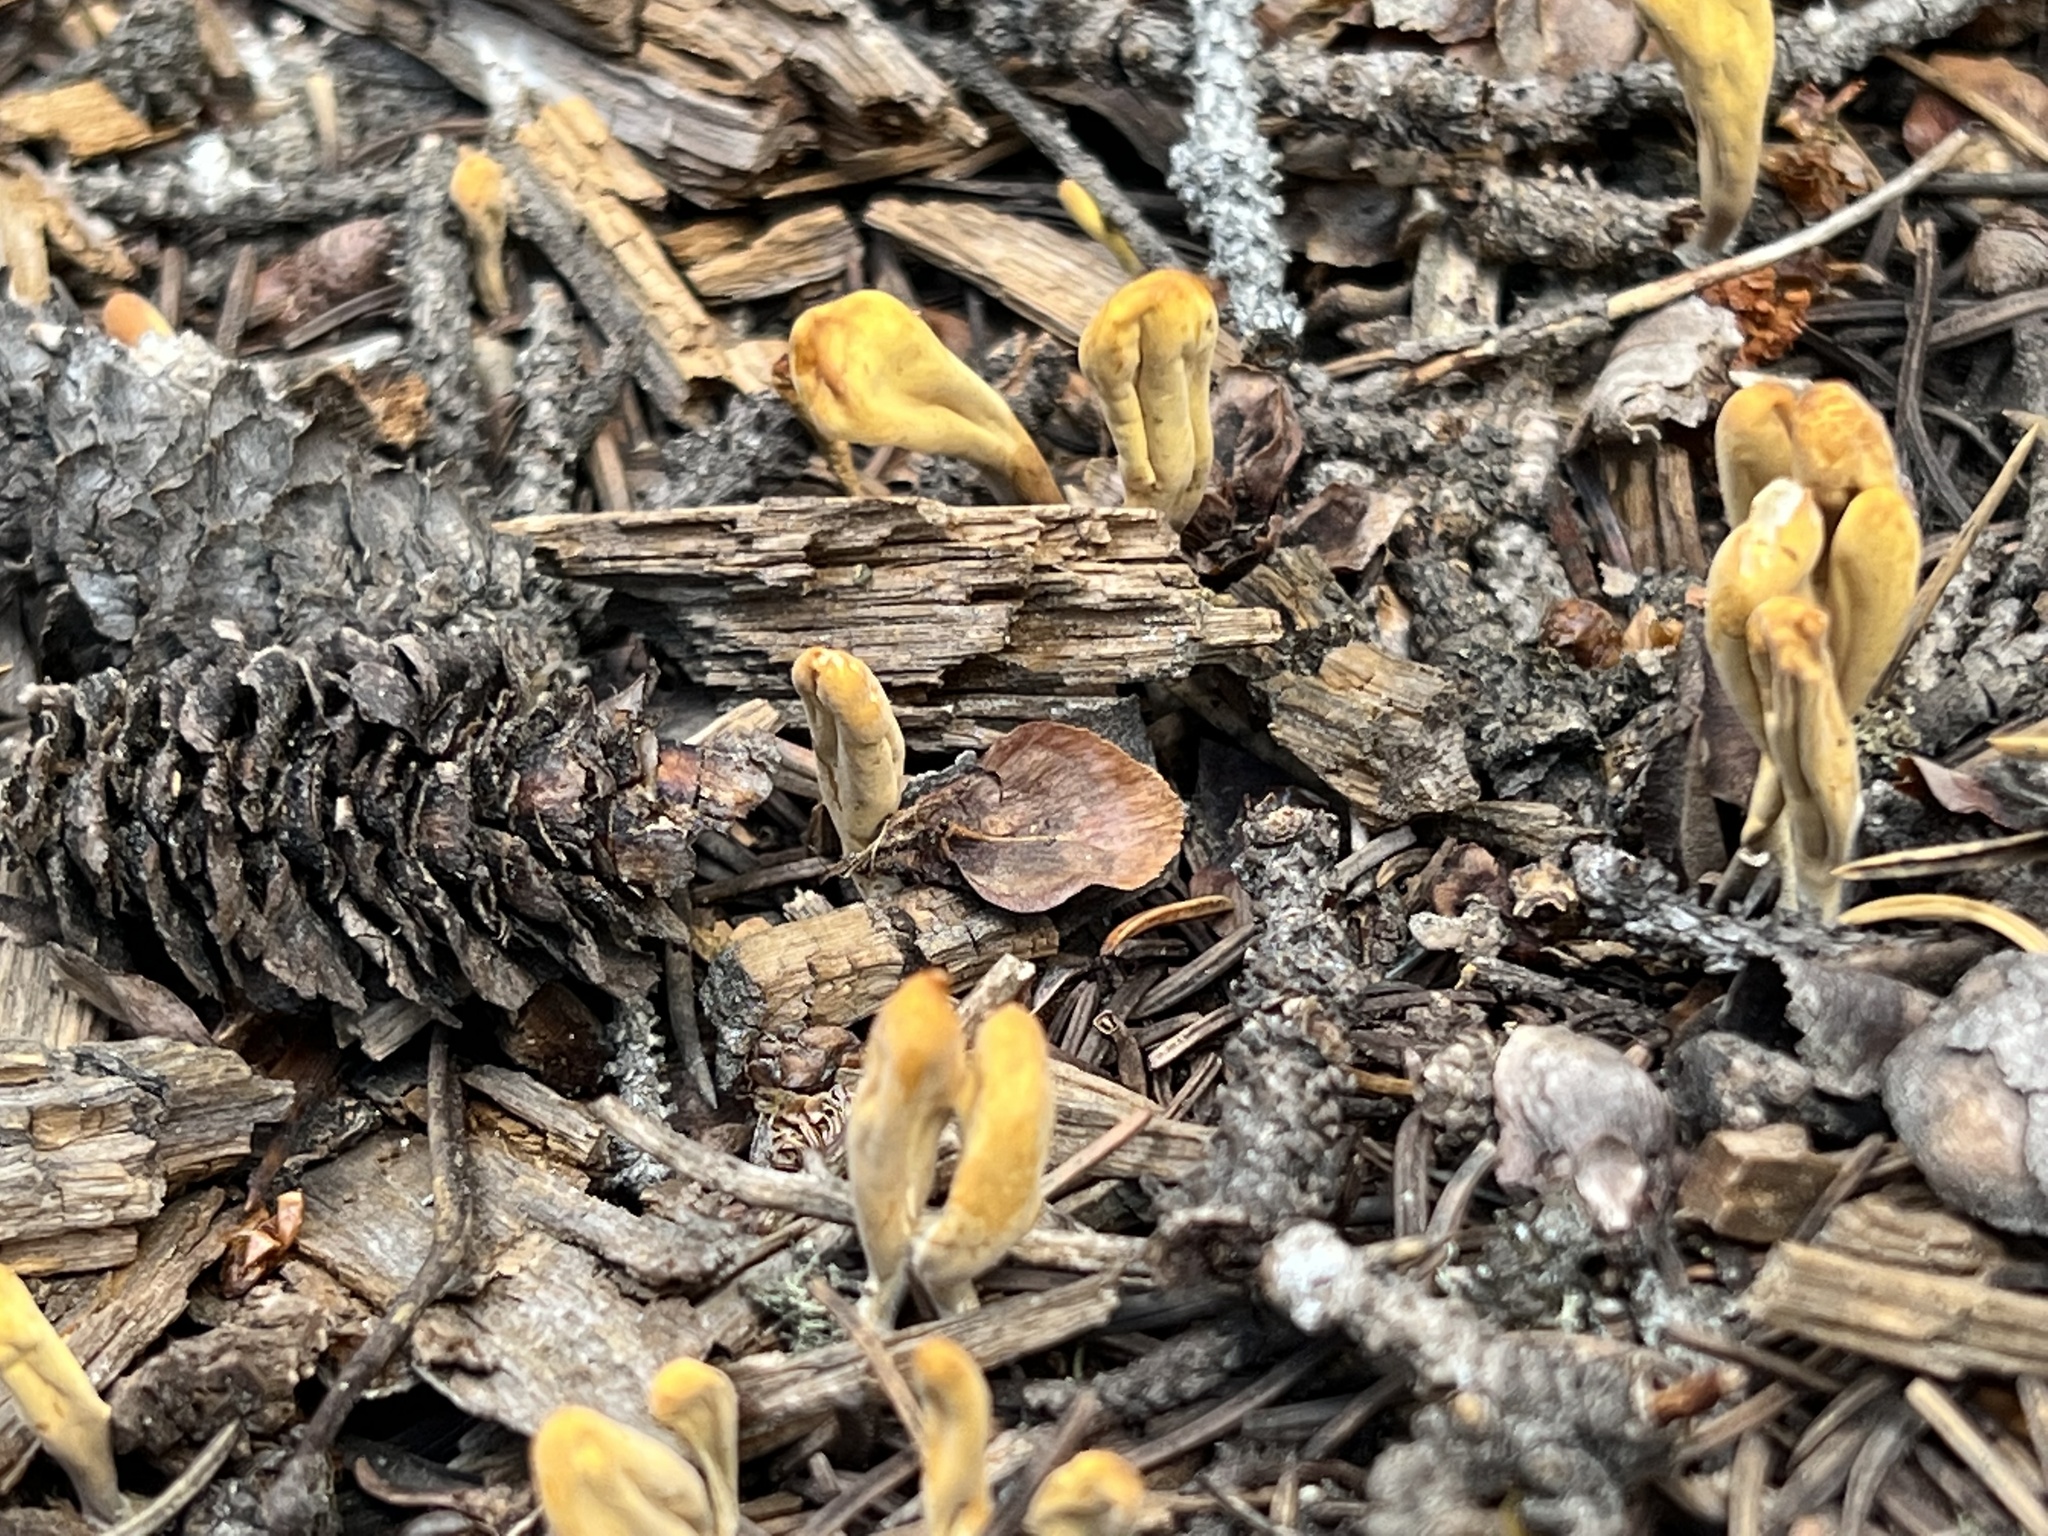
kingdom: Fungi
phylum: Basidiomycota
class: Agaricomycetes
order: Gomphales
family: Clavariadelphaceae
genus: Clavariadelphus
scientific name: Clavariadelphus ligula
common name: Ochre club
